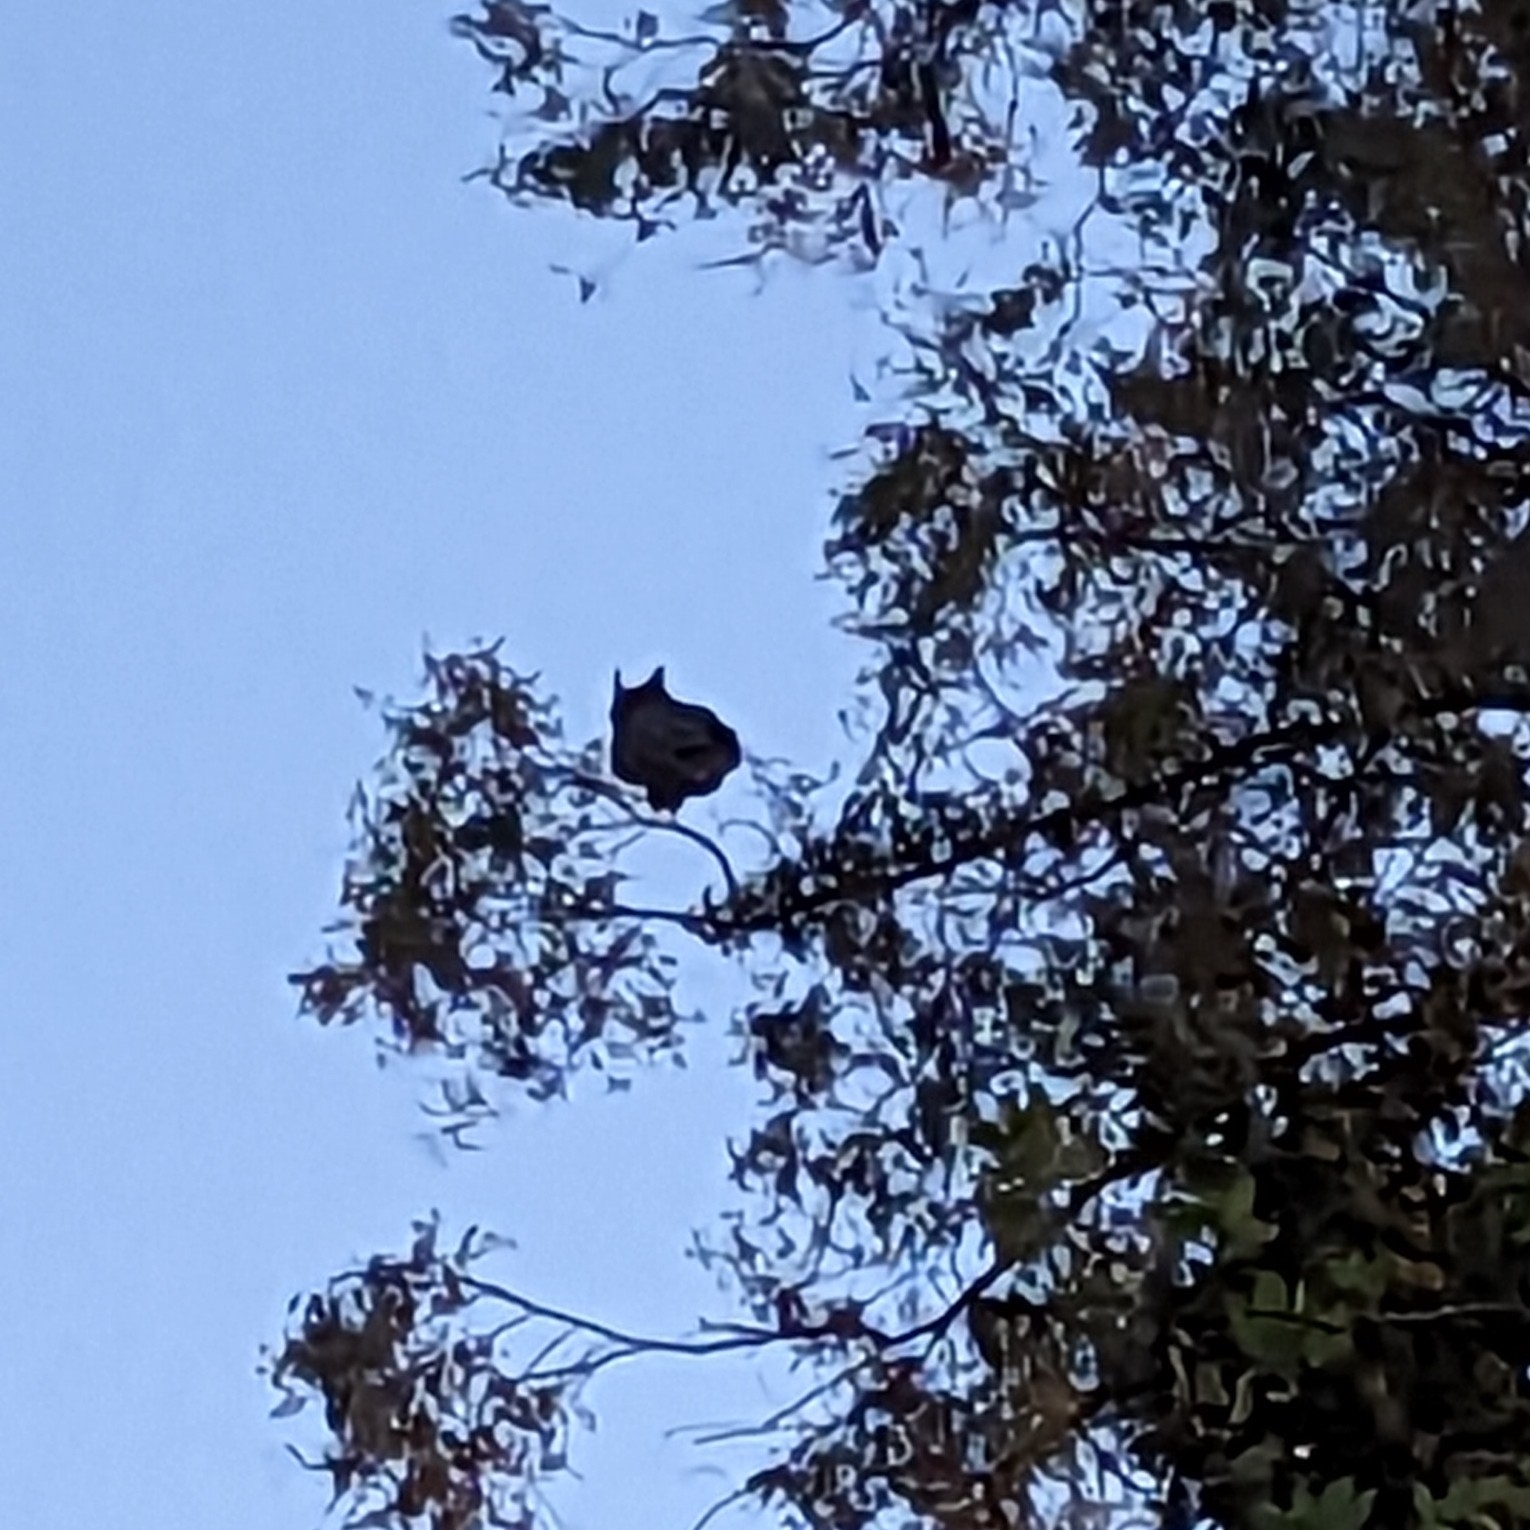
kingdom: Animalia
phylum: Chordata
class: Aves
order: Strigiformes
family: Strigidae
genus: Bubo
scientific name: Bubo virginianus
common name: Great horned owl
